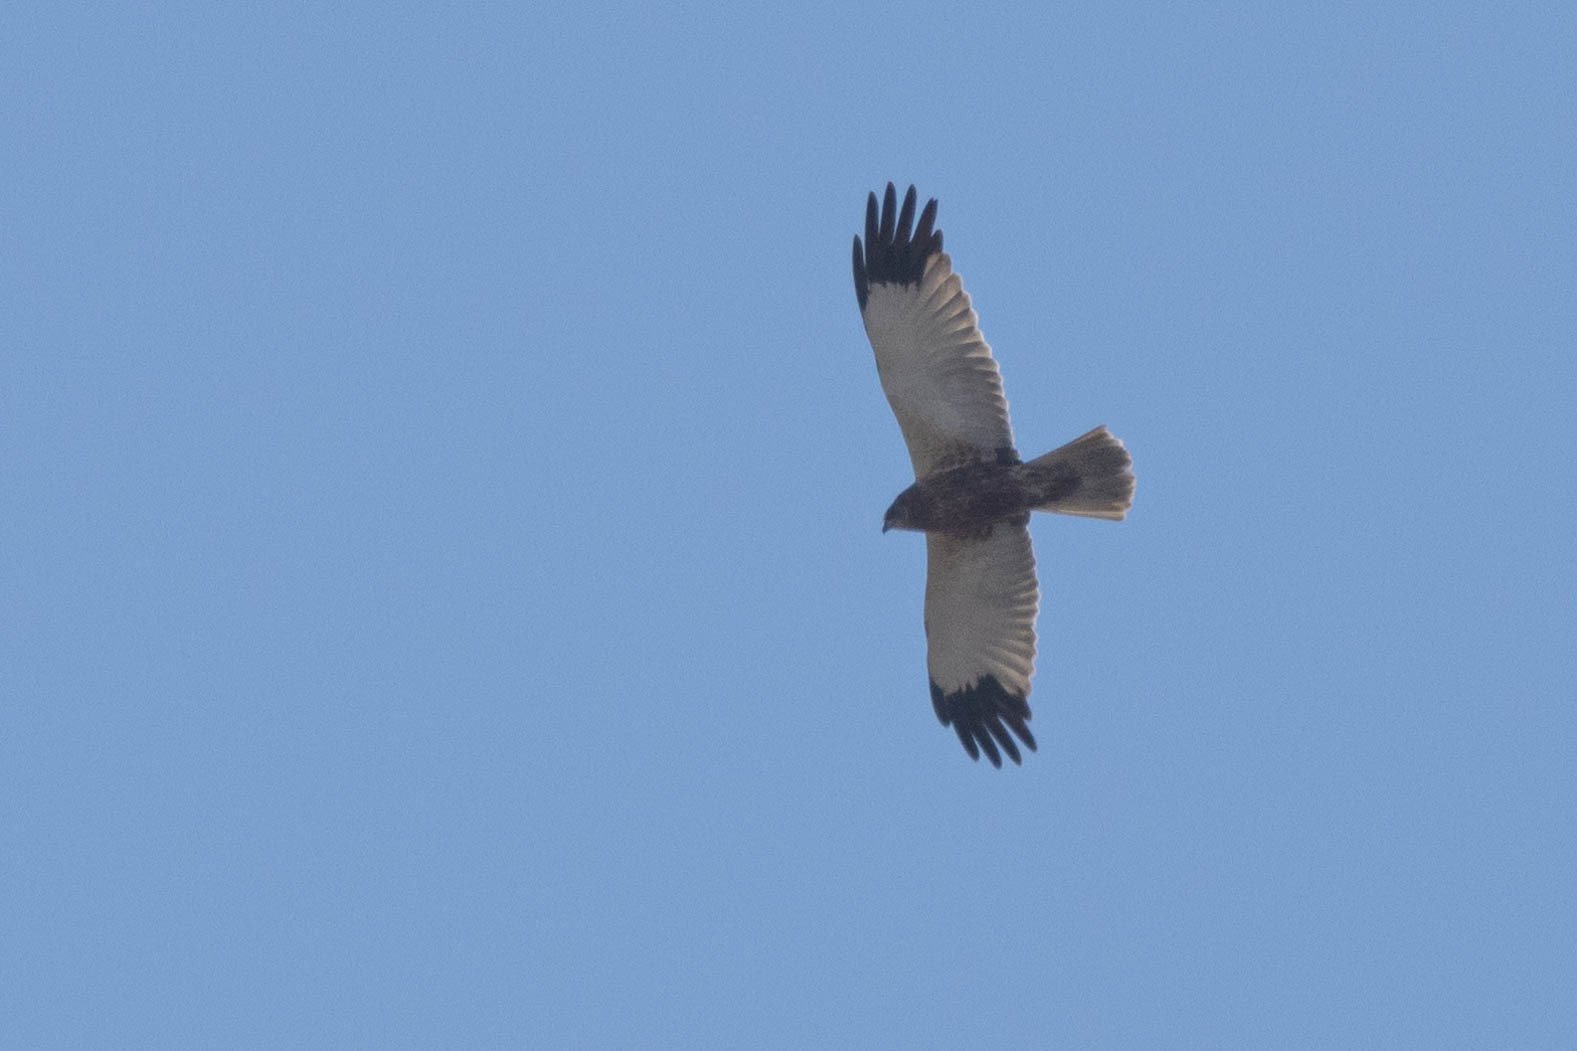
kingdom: Animalia
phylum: Chordata
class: Aves
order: Accipitriformes
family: Accipitridae
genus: Circus
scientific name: Circus aeruginosus
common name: Western marsh harrier
